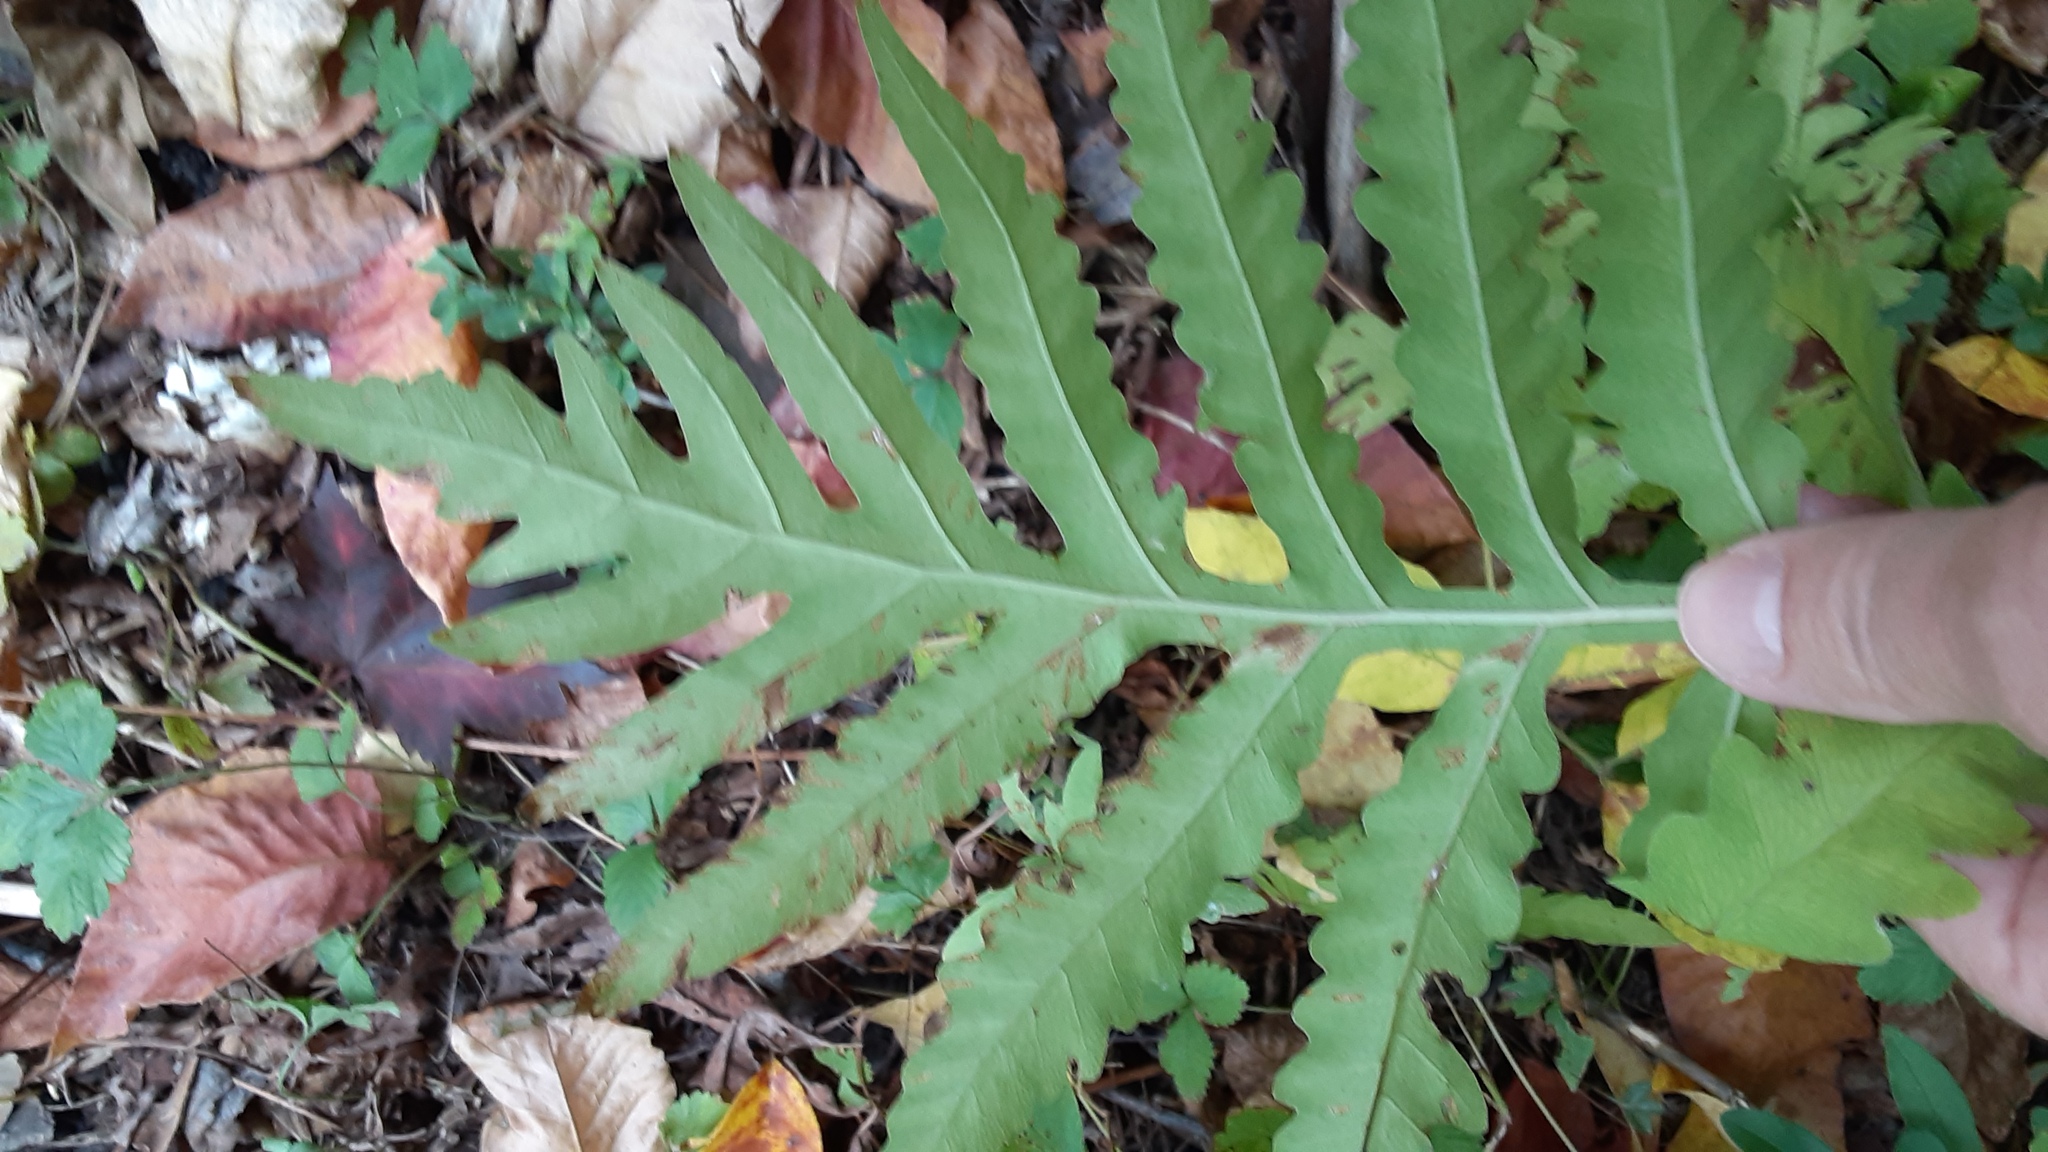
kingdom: Plantae
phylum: Tracheophyta
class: Polypodiopsida
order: Polypodiales
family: Onocleaceae
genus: Onoclea
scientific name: Onoclea sensibilis
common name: Sensitive fern
